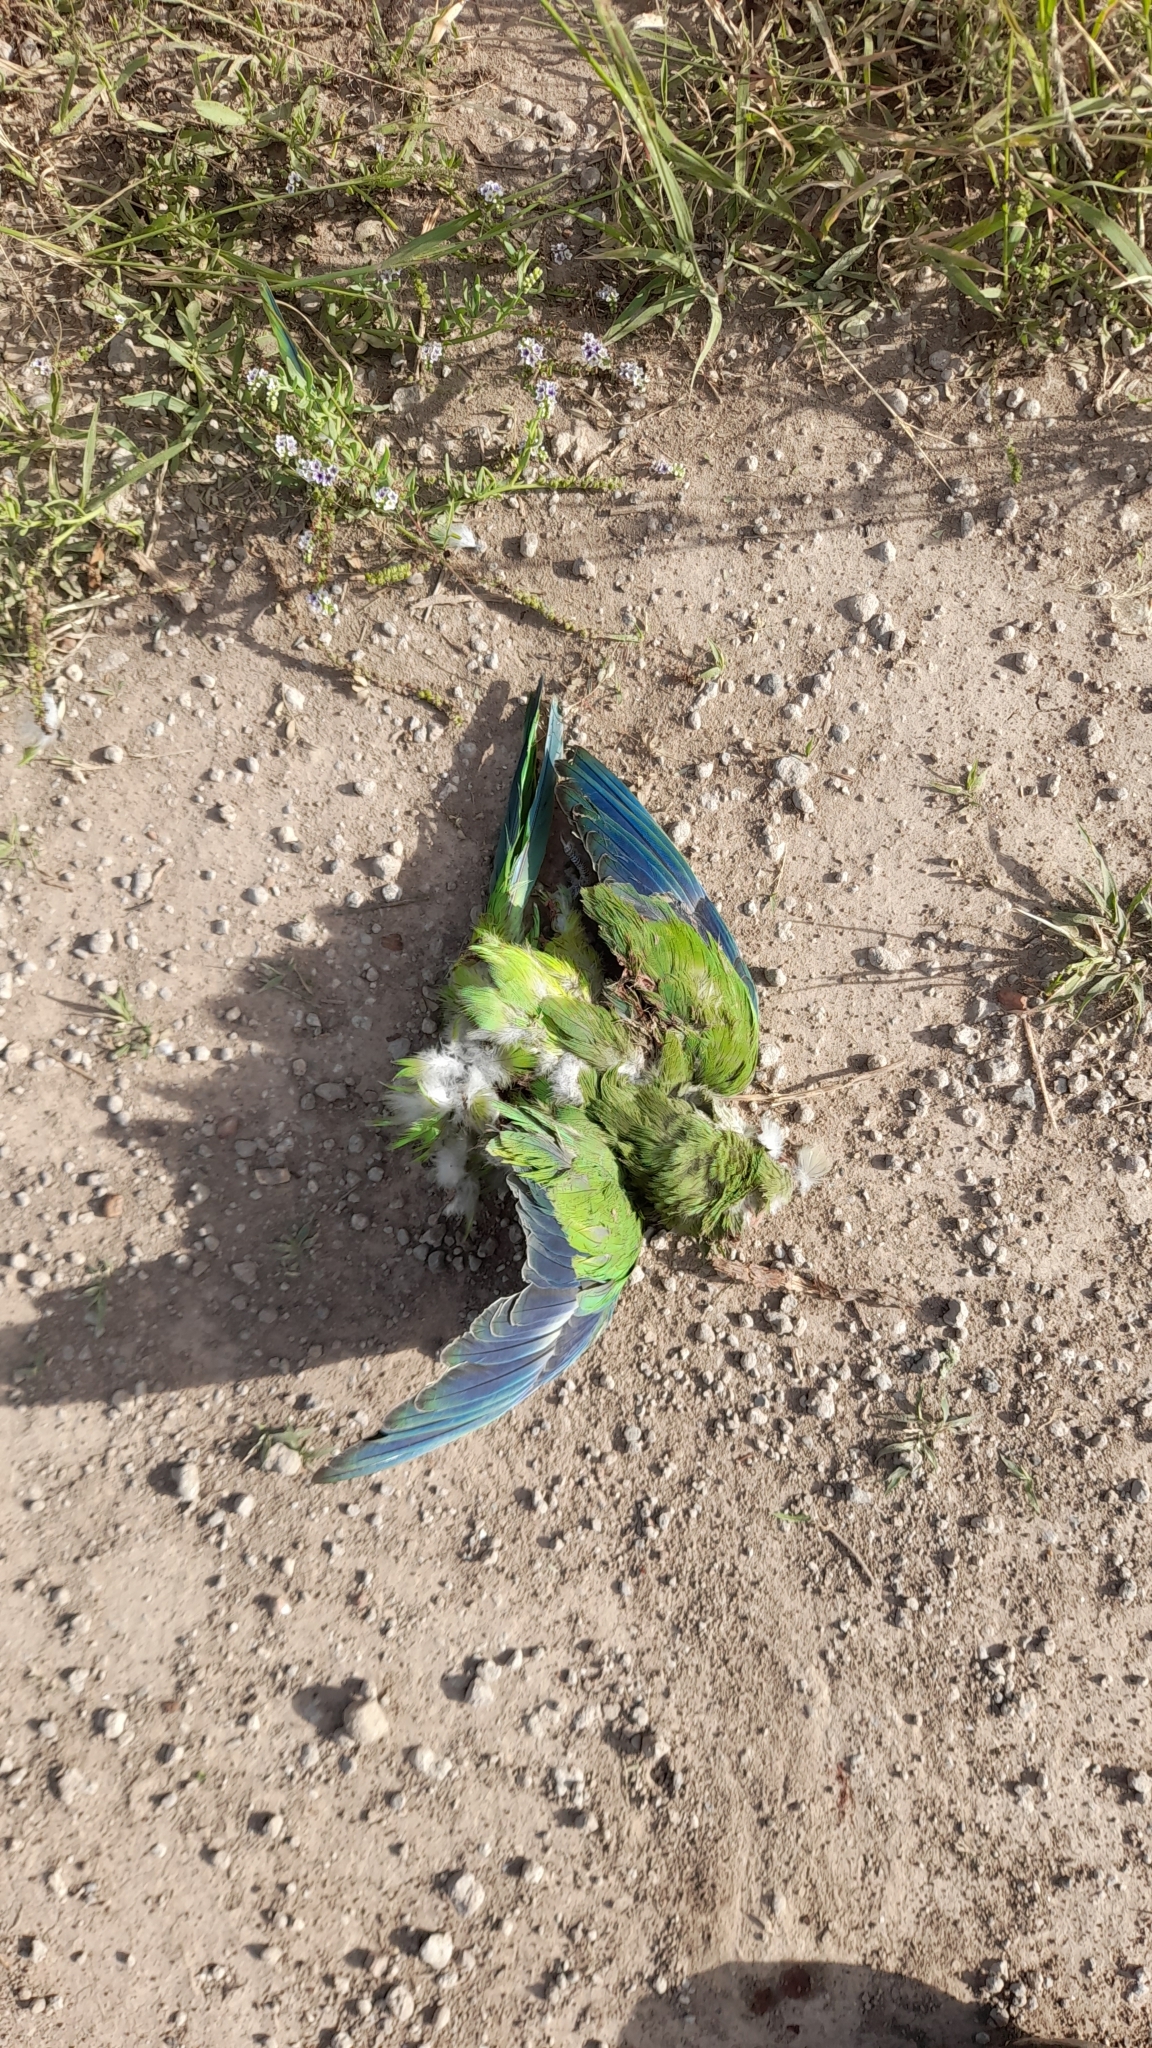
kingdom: Animalia
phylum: Chordata
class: Aves
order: Psittaciformes
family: Psittacidae
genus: Myiopsitta
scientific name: Myiopsitta monachus
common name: Monk parakeet
